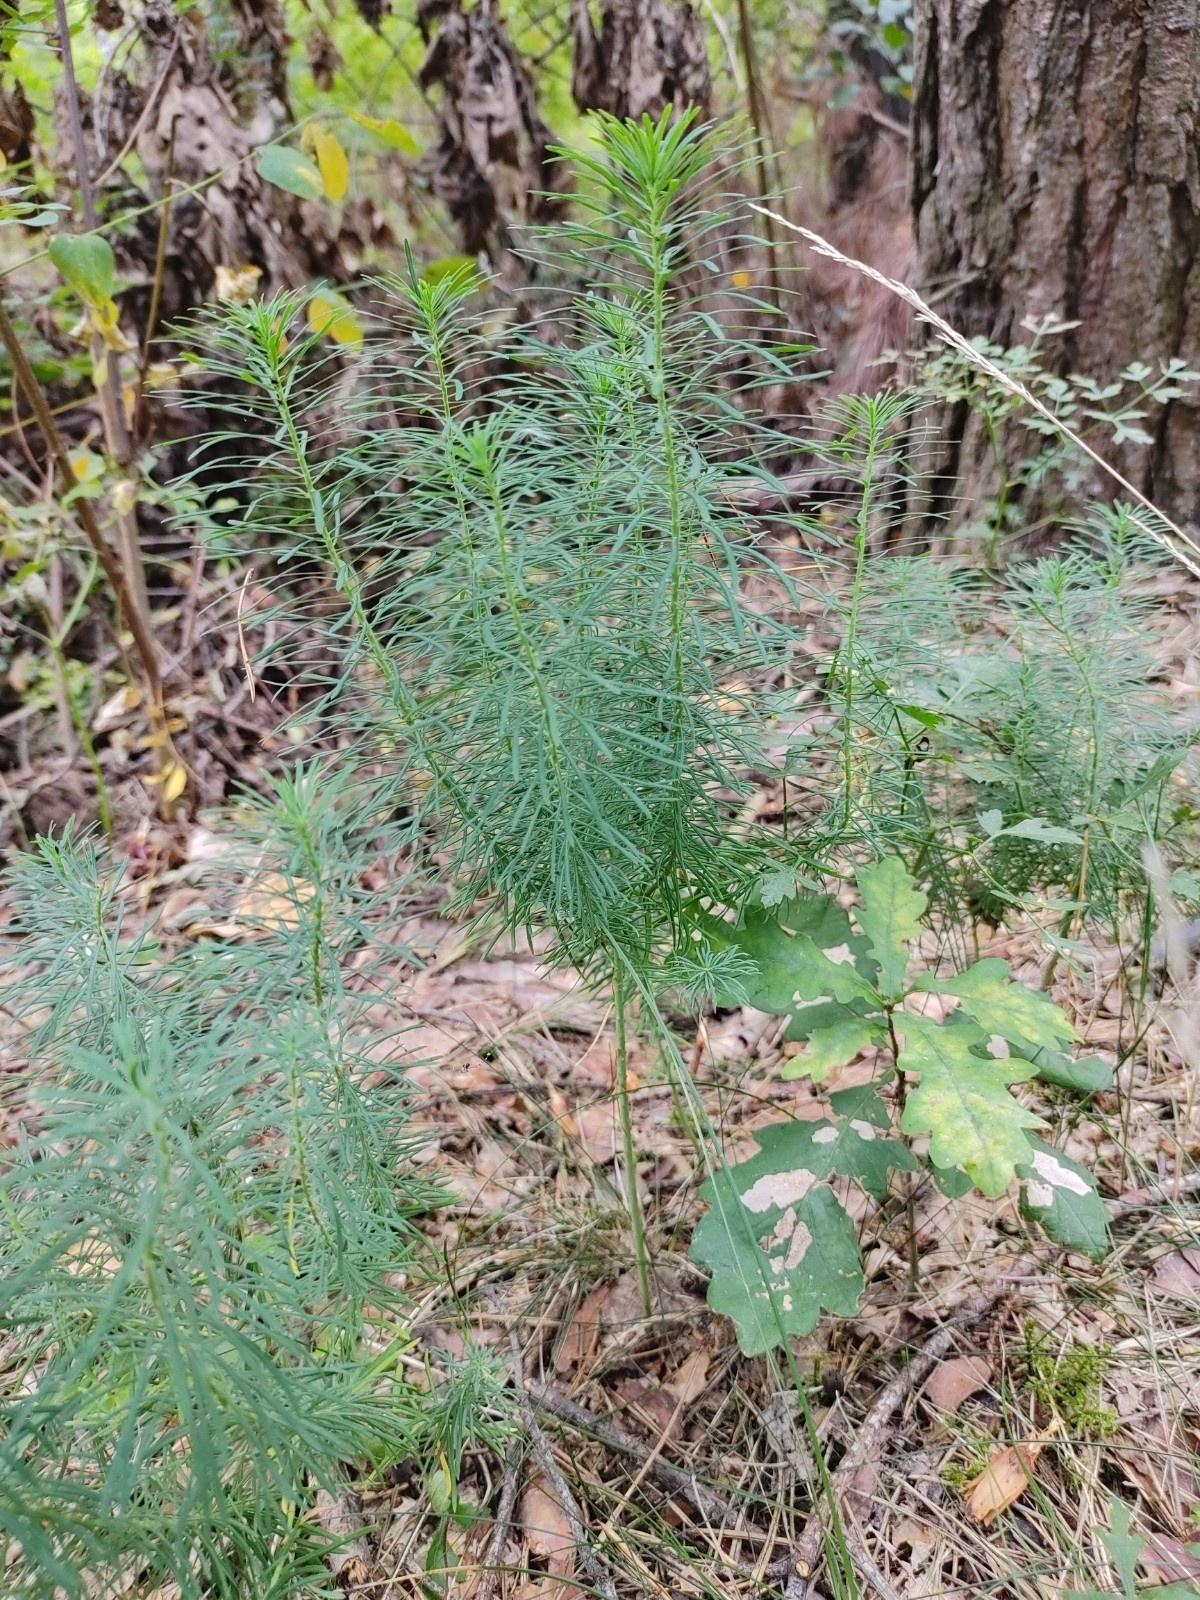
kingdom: Plantae
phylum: Tracheophyta
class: Magnoliopsida
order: Malpighiales
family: Euphorbiaceae
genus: Euphorbia
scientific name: Euphorbia cyparissias
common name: Cypress spurge
